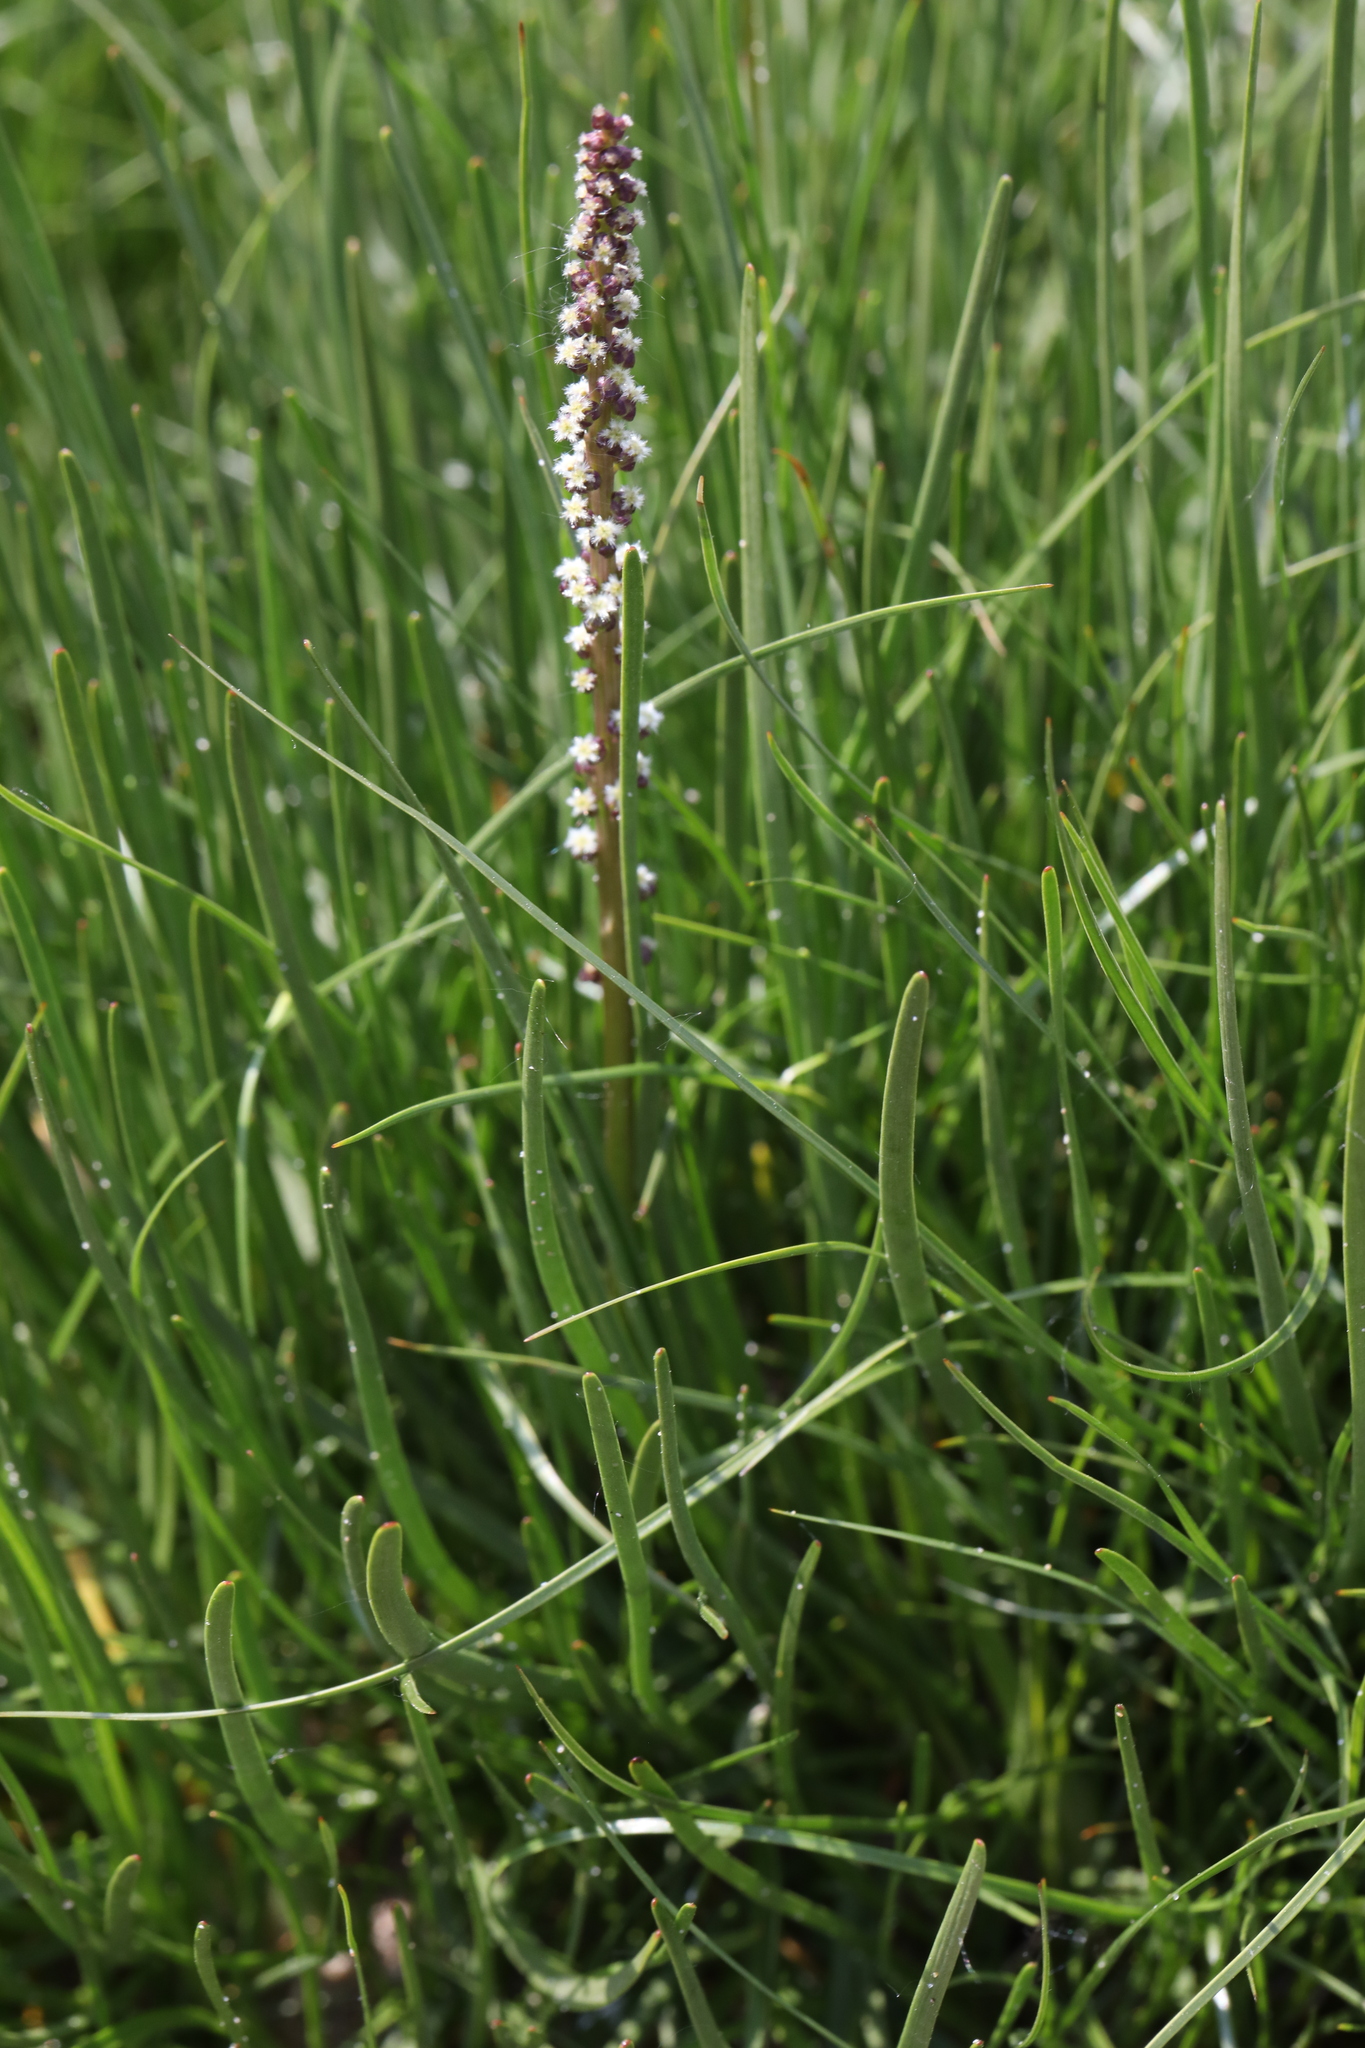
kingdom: Plantae
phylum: Tracheophyta
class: Liliopsida
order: Alismatales
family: Juncaginaceae
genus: Triglochin
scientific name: Triglochin maritima
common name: Sea arrowgrass
